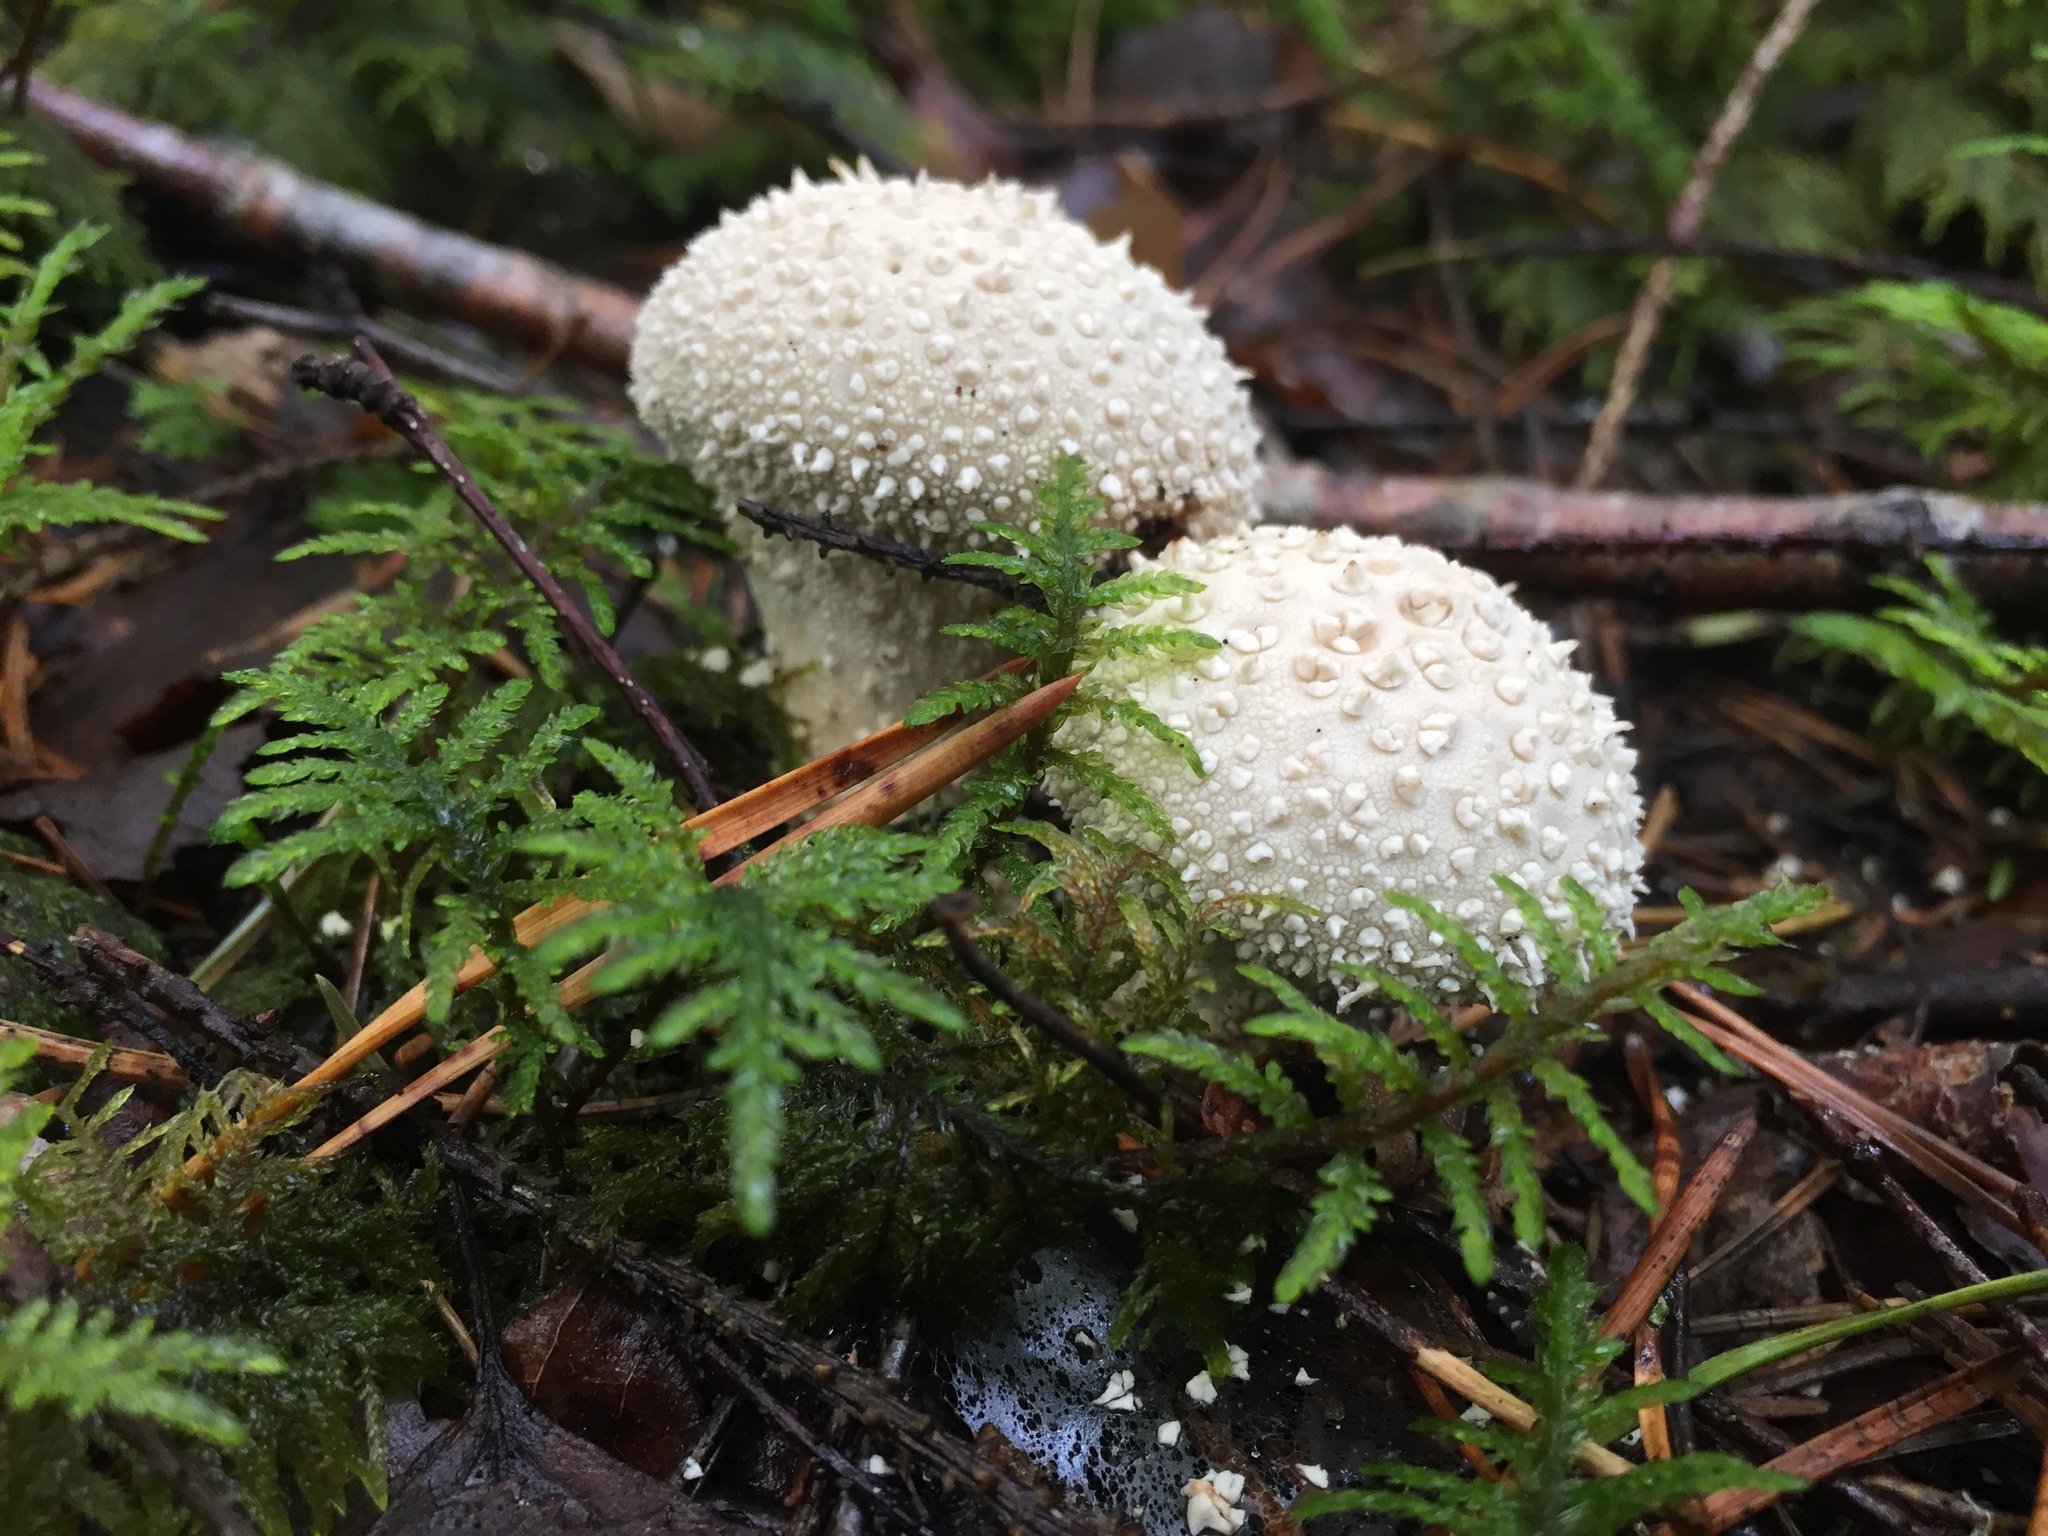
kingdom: Fungi
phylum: Basidiomycota
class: Agaricomycetes
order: Agaricales
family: Lycoperdaceae
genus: Lycoperdon
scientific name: Lycoperdon perlatum
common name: Common puffball
